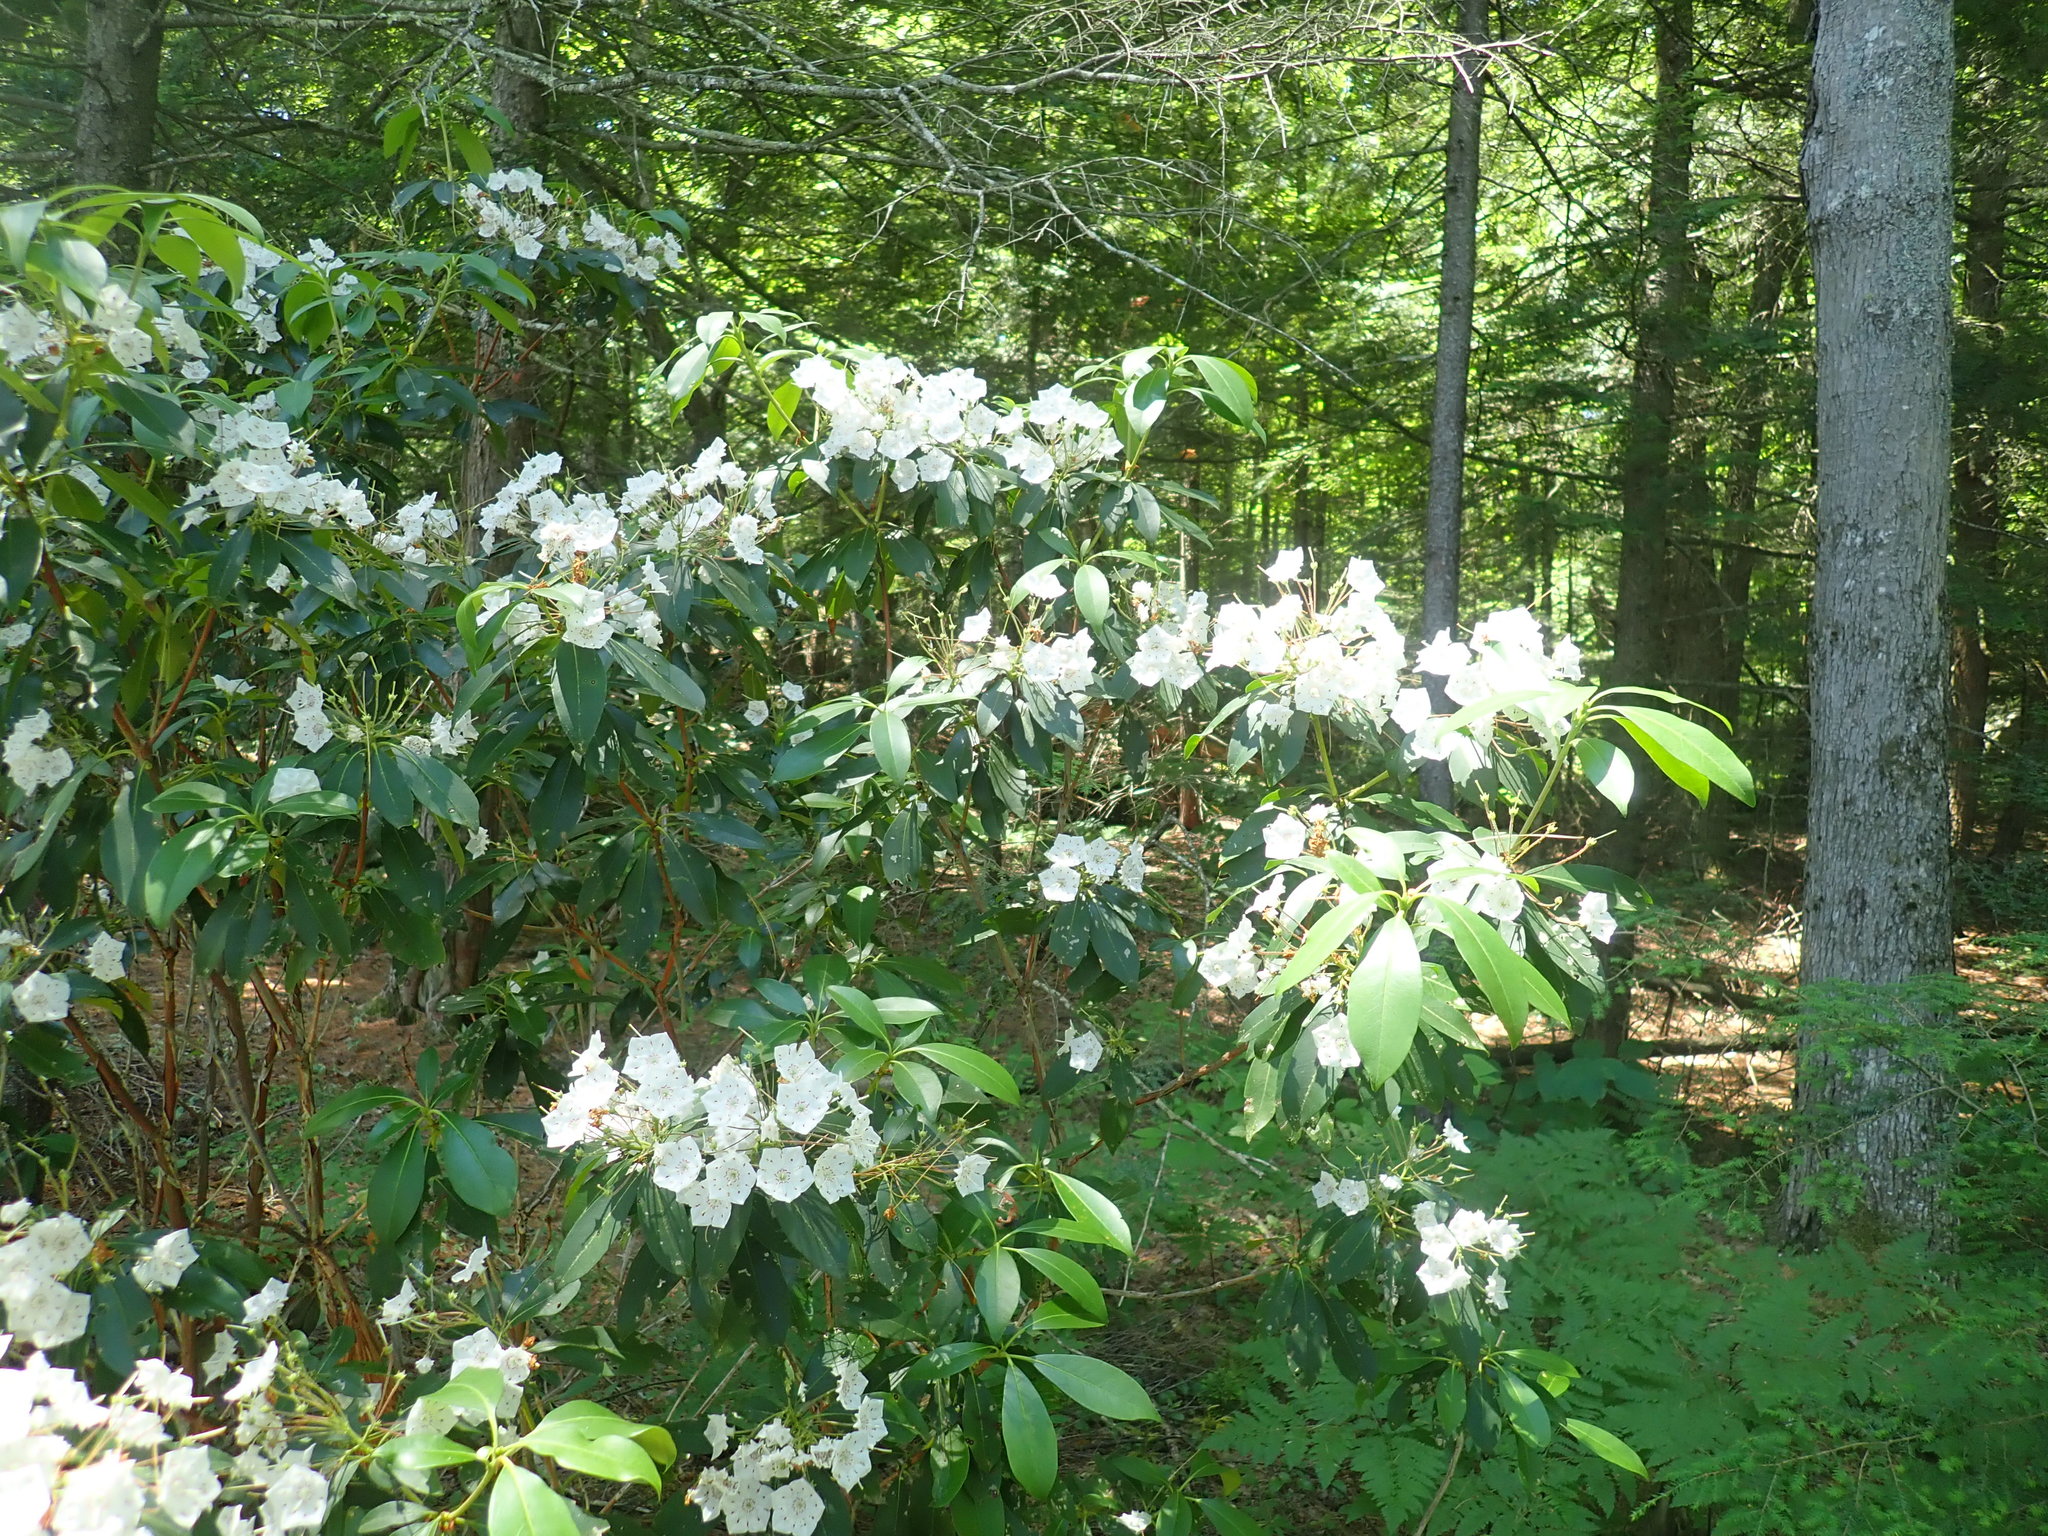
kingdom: Plantae
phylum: Tracheophyta
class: Magnoliopsida
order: Ericales
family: Ericaceae
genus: Kalmia
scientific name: Kalmia latifolia
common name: Mountain-laurel
